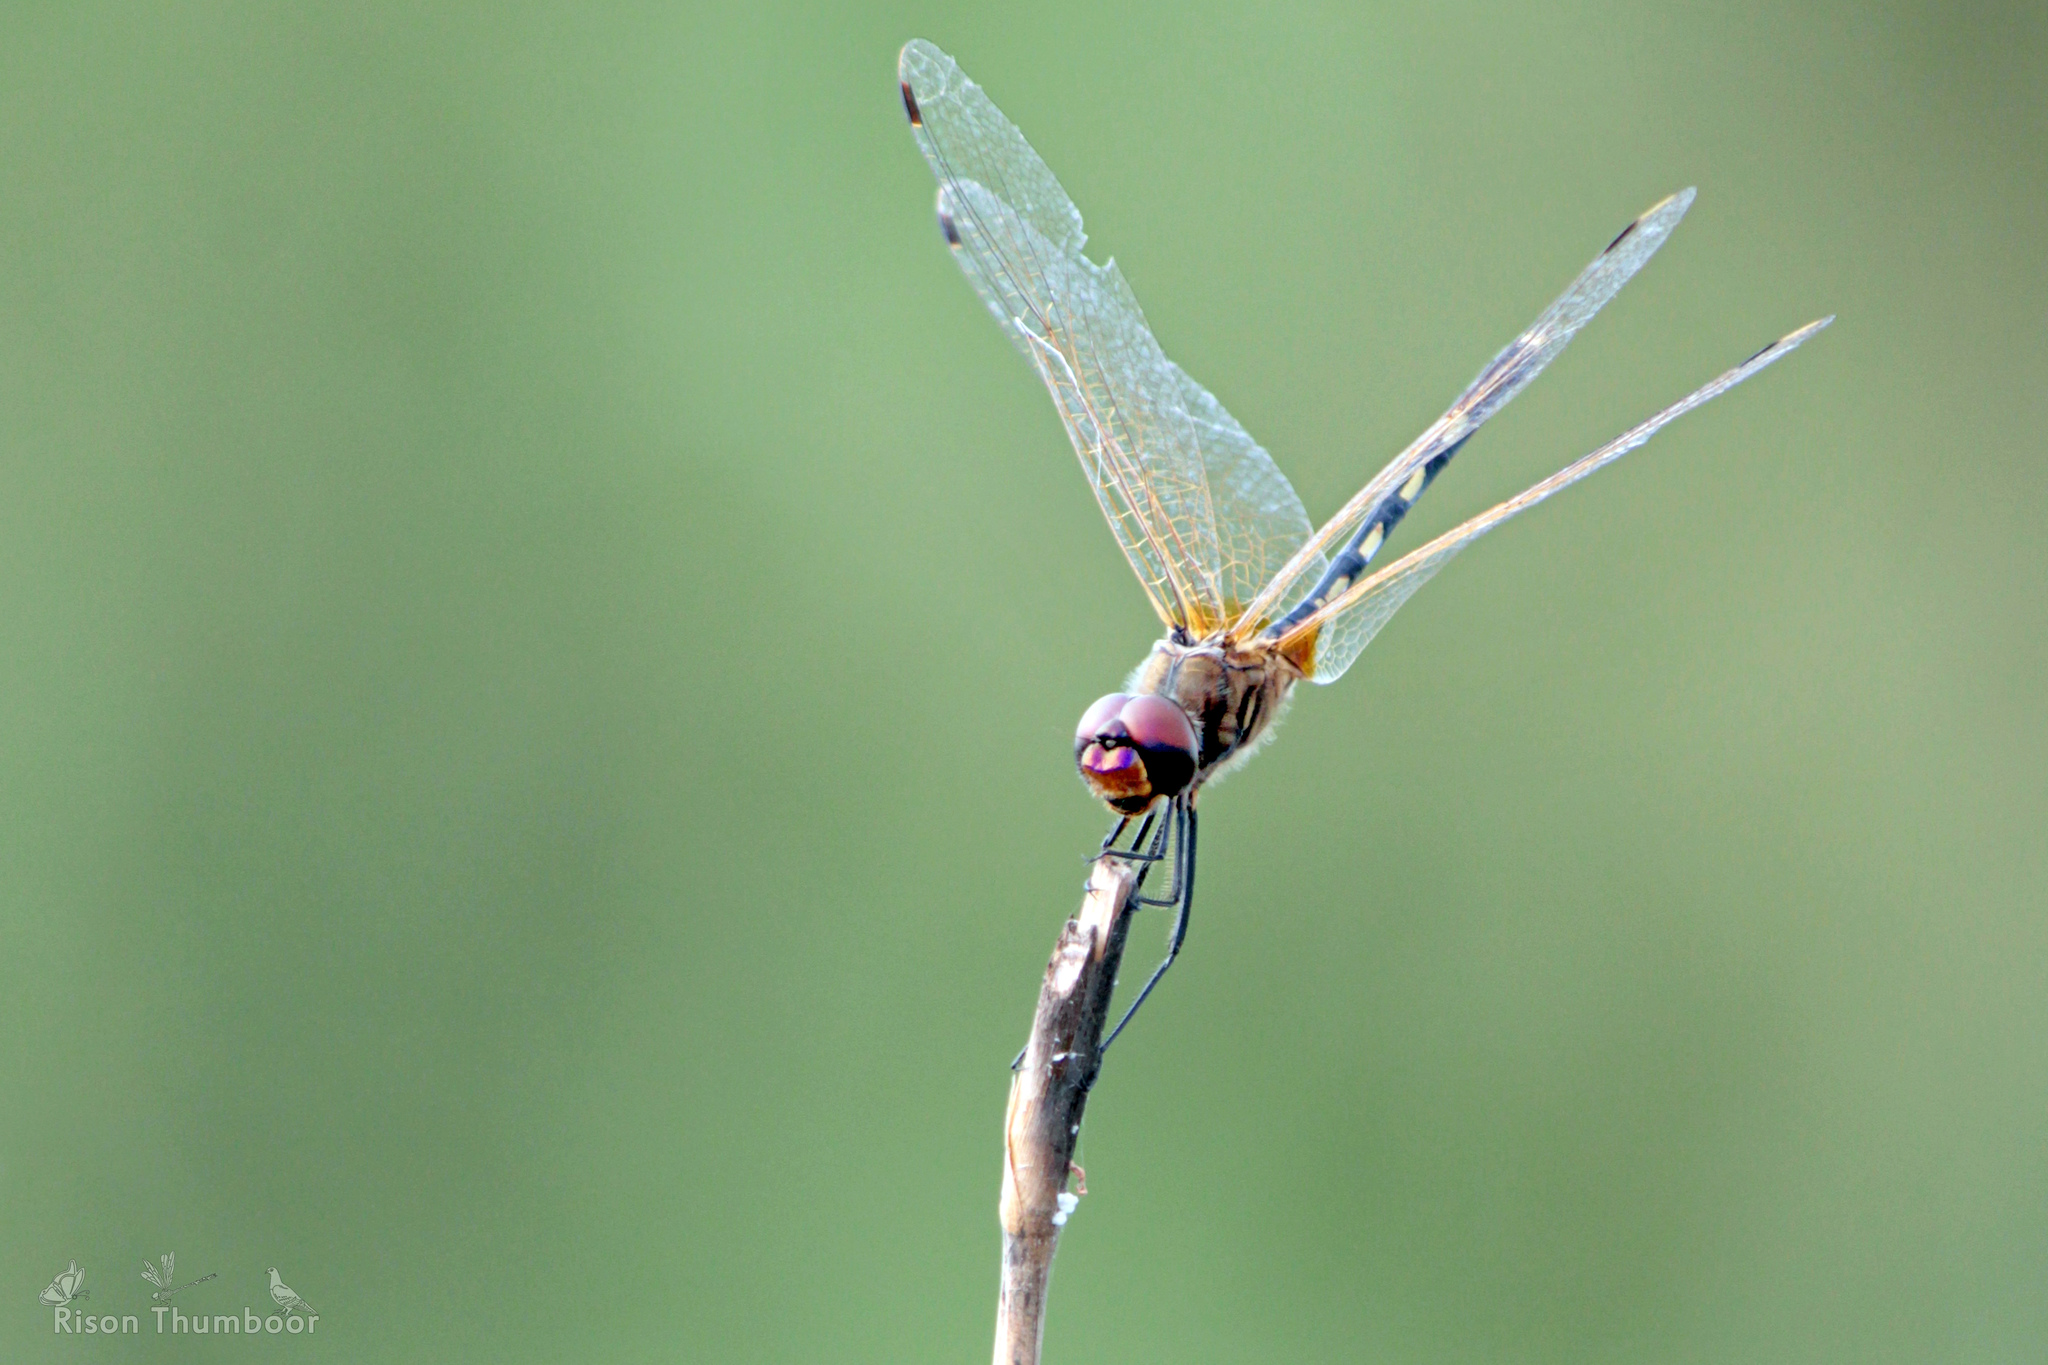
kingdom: Animalia
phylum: Arthropoda
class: Insecta
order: Odonata
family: Libellulidae
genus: Trithemis
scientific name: Trithemis pallidinervis
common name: Dancing dropwing
